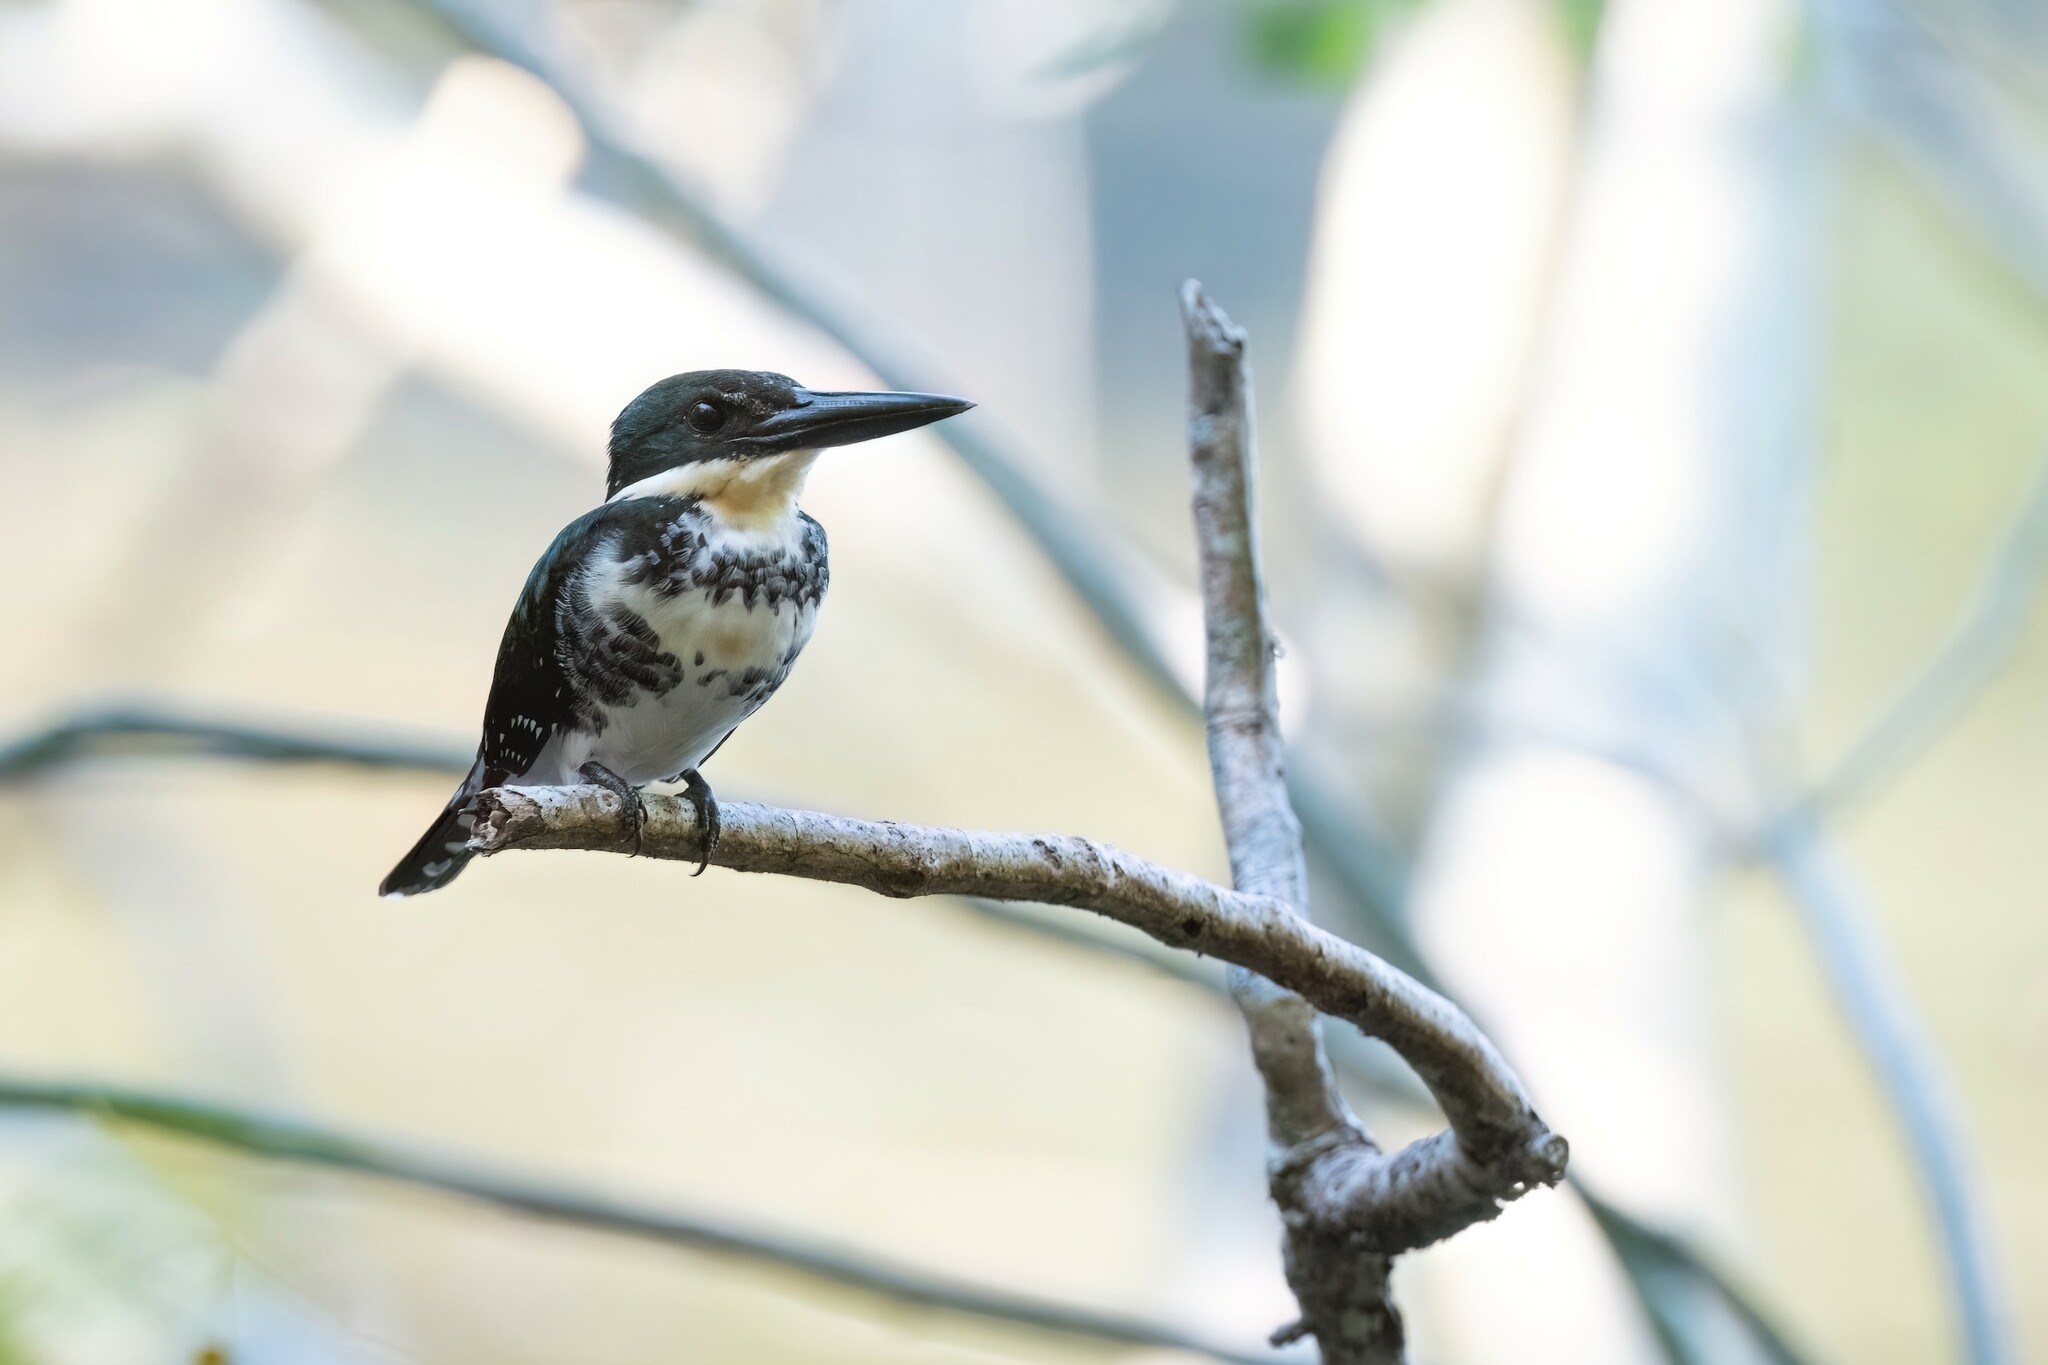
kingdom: Animalia
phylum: Chordata
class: Aves
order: Coraciiformes
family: Alcedinidae
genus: Chloroceryle
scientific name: Chloroceryle americana
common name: Green kingfisher
